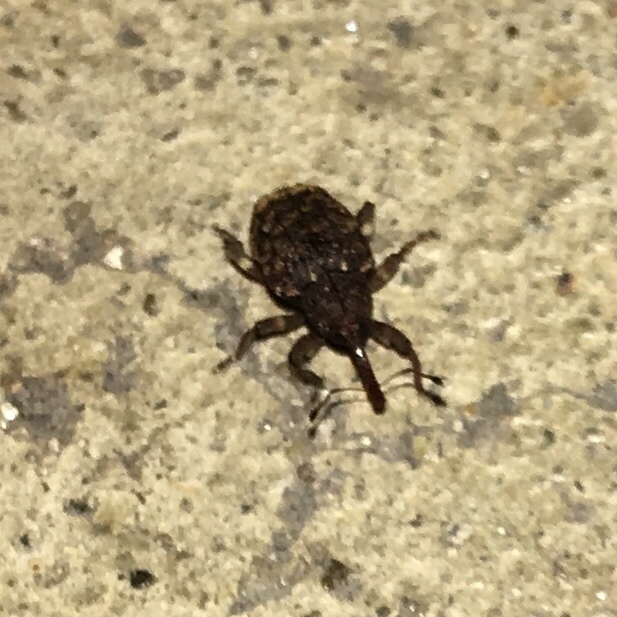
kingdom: Animalia
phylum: Arthropoda
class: Insecta
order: Coleoptera
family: Curculionidae
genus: Conotrachelus
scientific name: Conotrachelus carinifer
